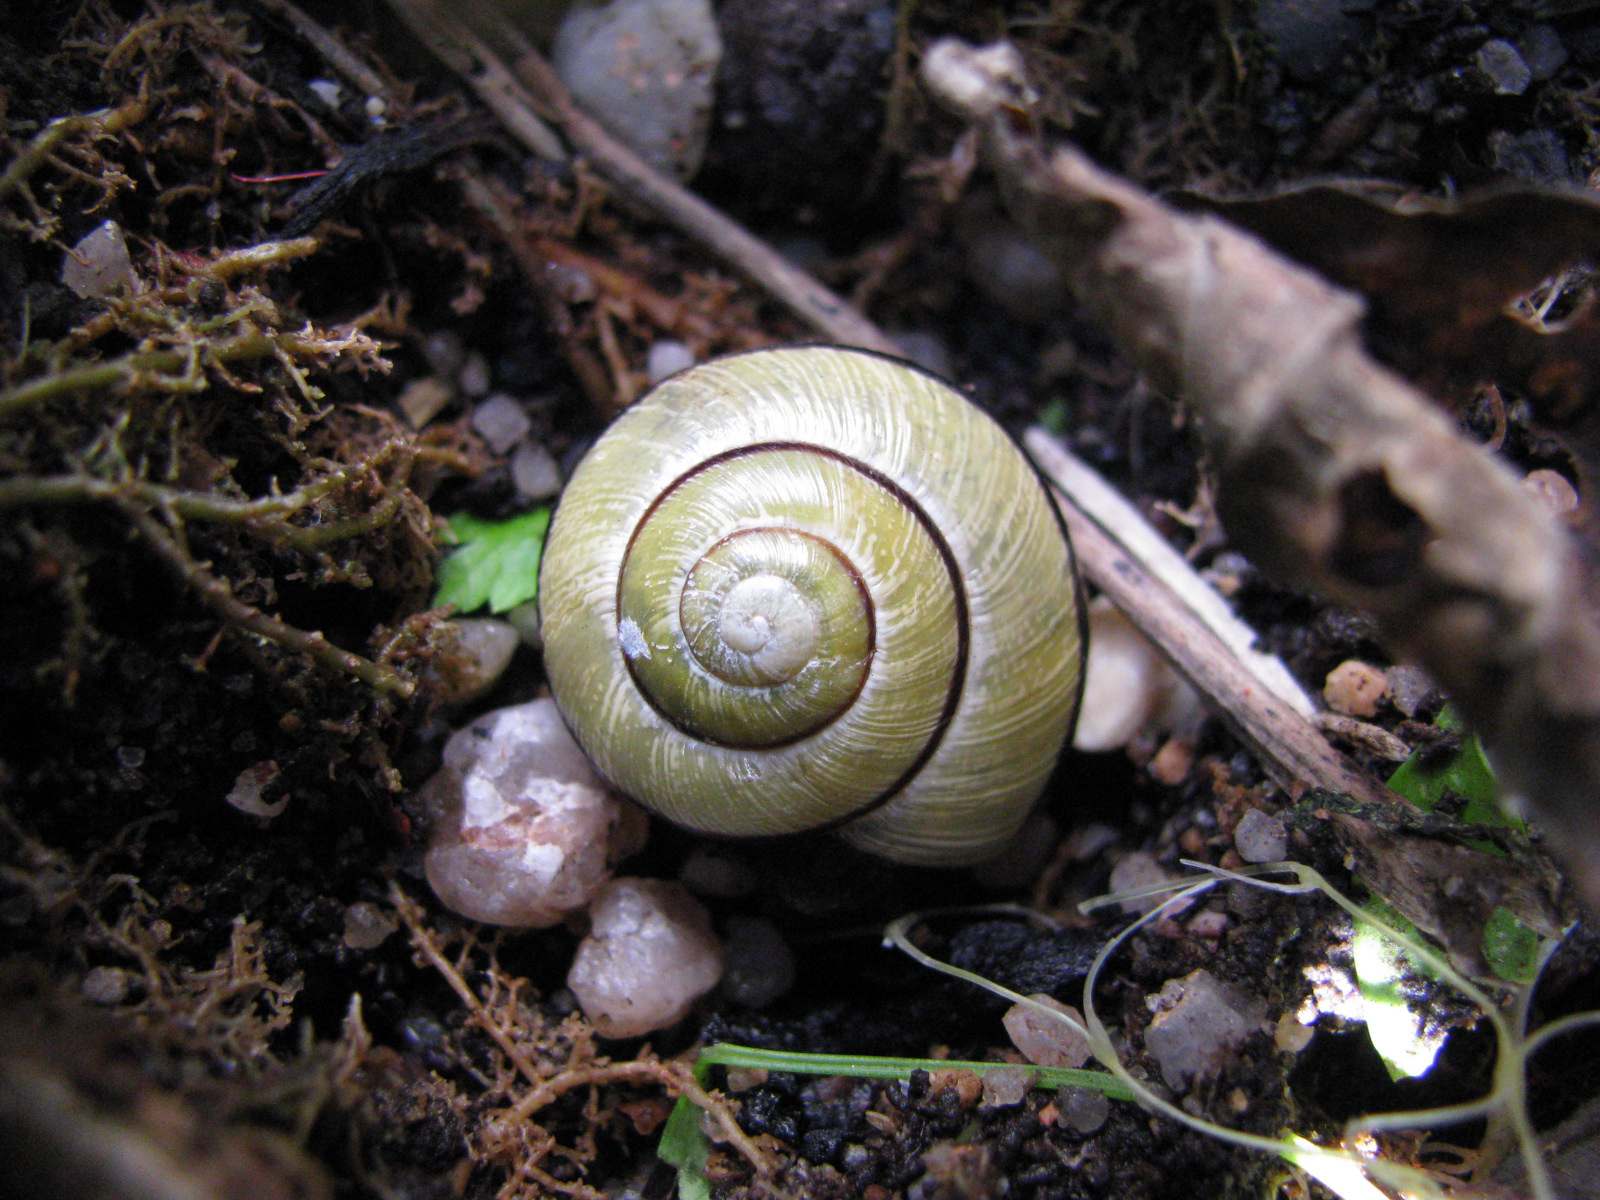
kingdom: Animalia
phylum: Mollusca
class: Gastropoda
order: Stylommatophora
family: Helicidae
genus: Cepaea
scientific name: Cepaea nemoralis
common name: Grovesnail
